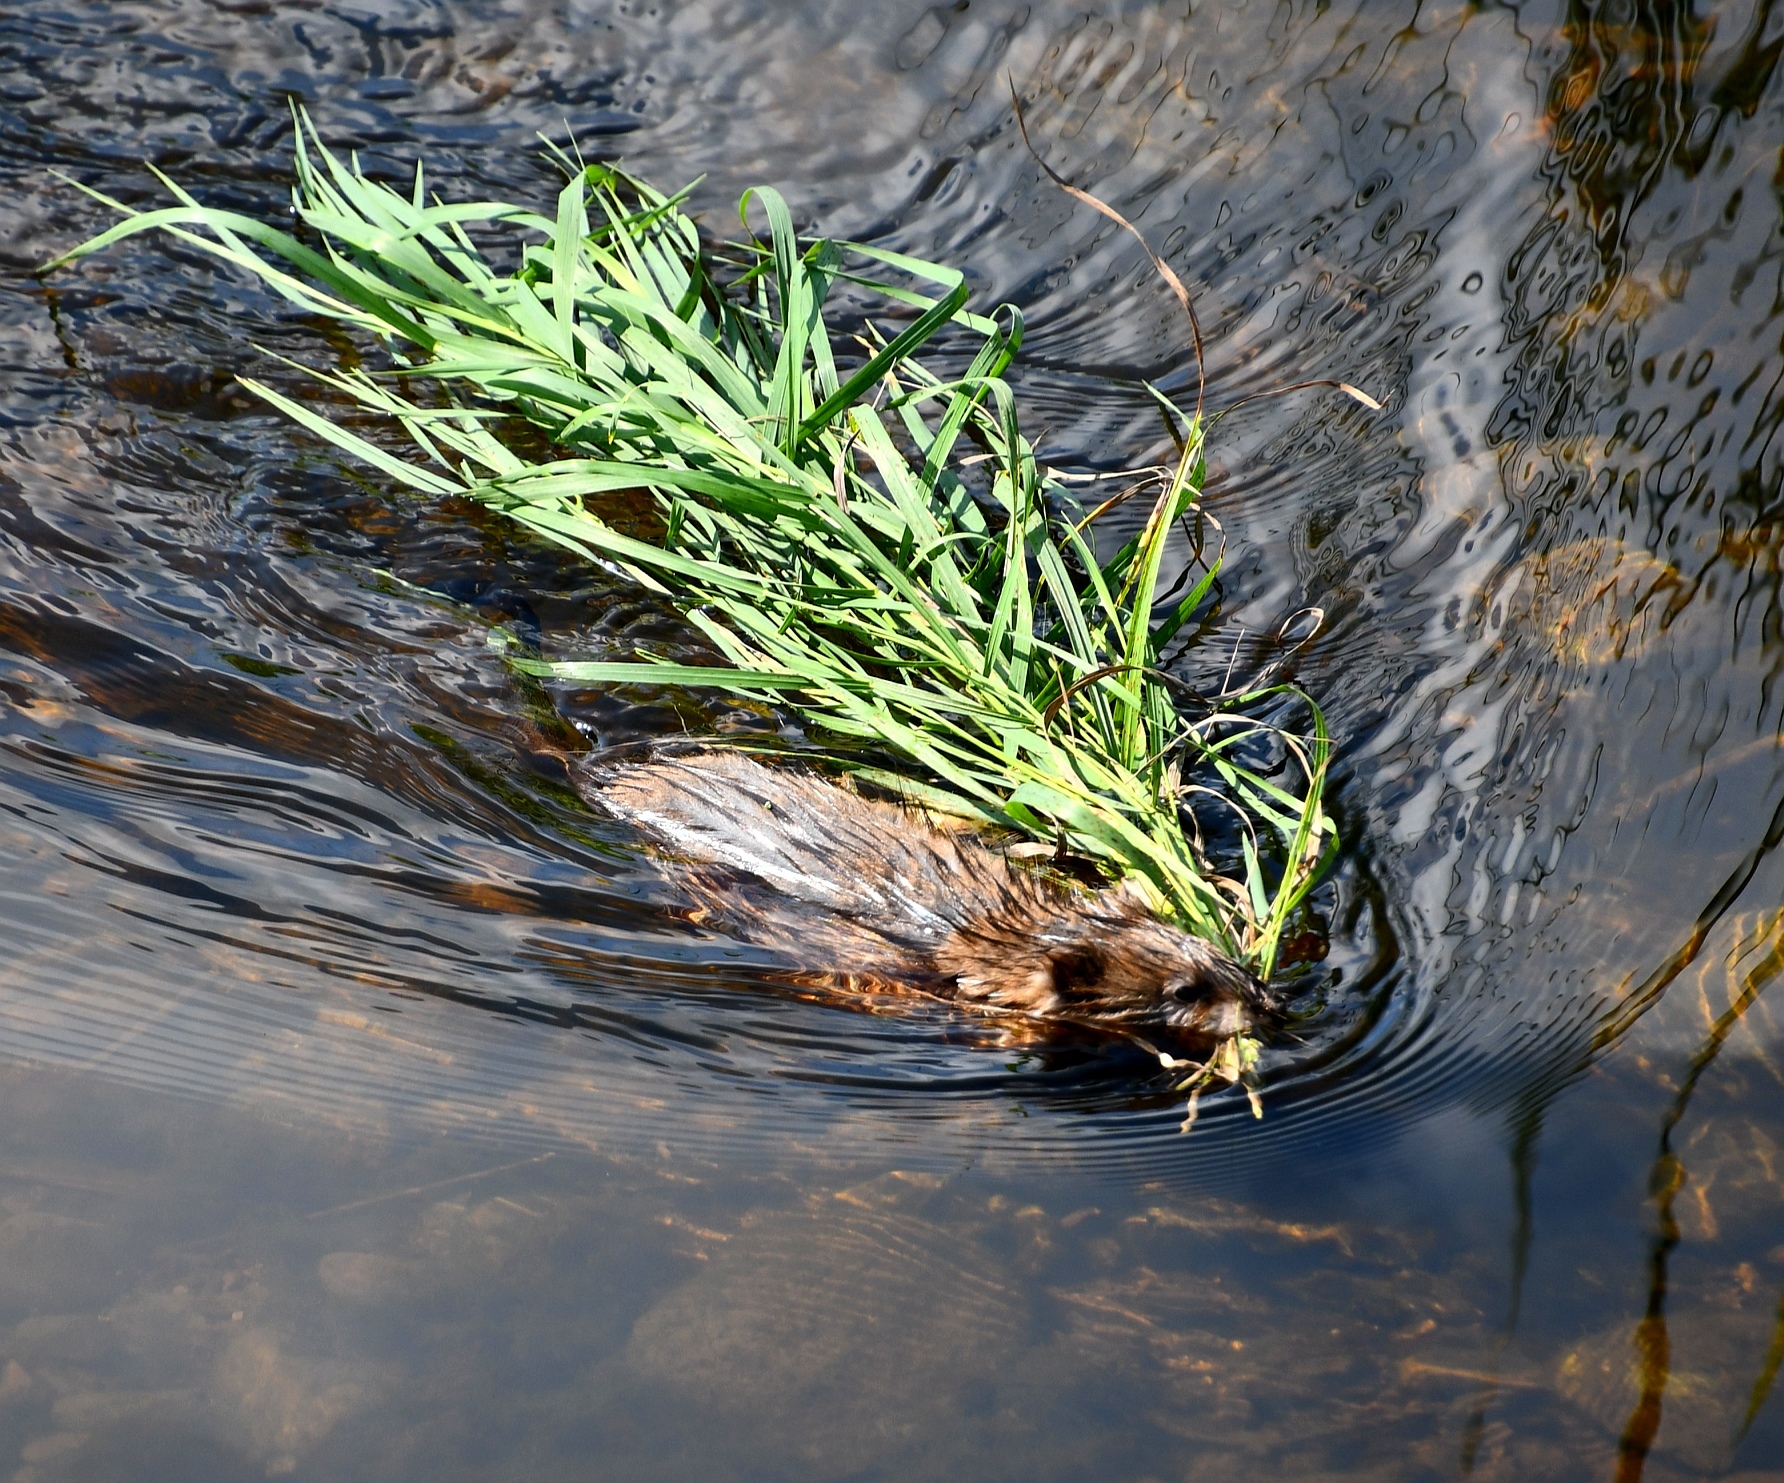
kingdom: Animalia
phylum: Chordata
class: Mammalia
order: Rodentia
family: Cricetidae
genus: Ondatra
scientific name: Ondatra zibethicus
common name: Muskrat
